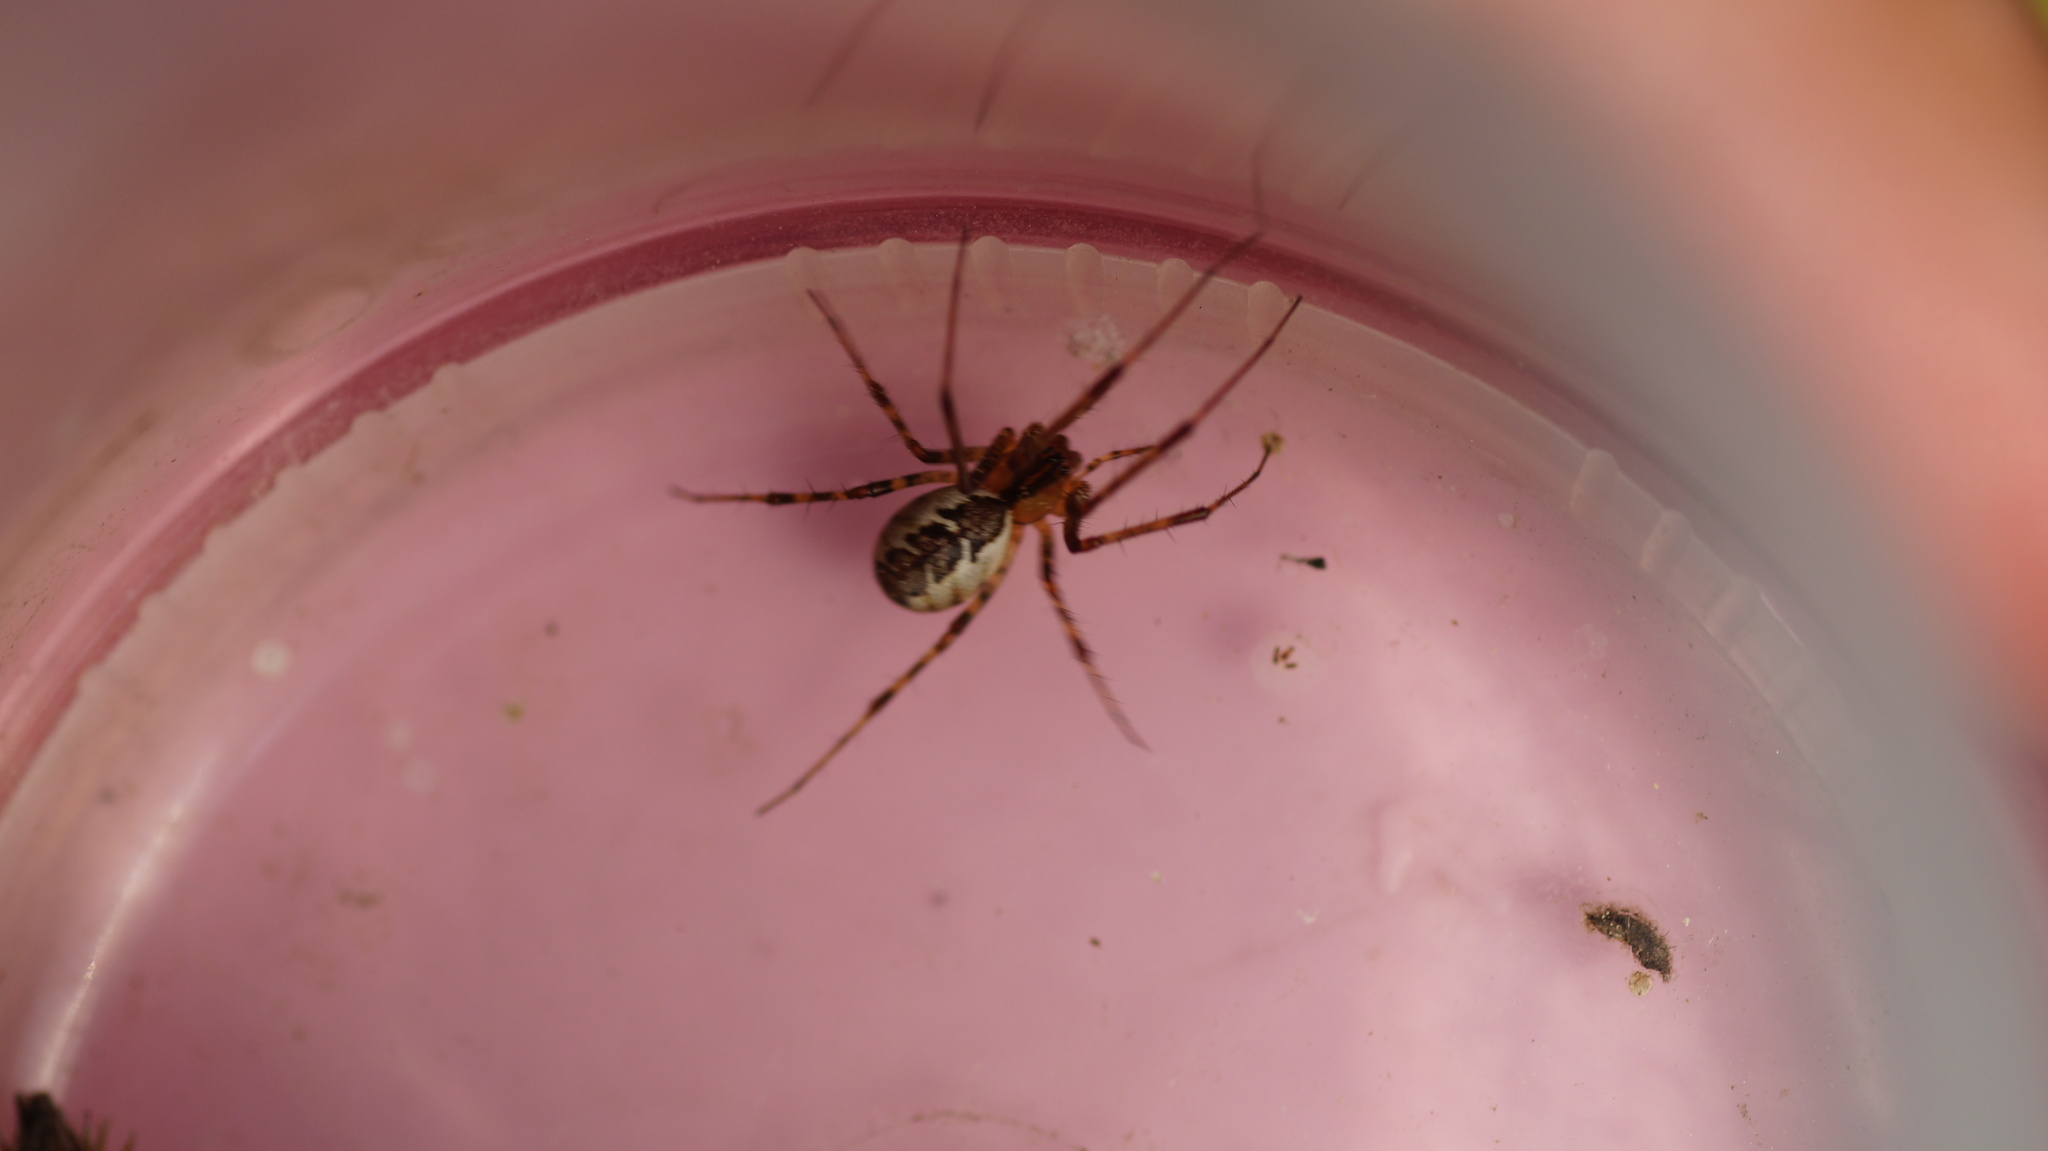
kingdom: Animalia
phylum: Arthropoda
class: Arachnida
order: Araneae
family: Linyphiidae
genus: Pityohyphantes
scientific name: Pityohyphantes phrygianus
